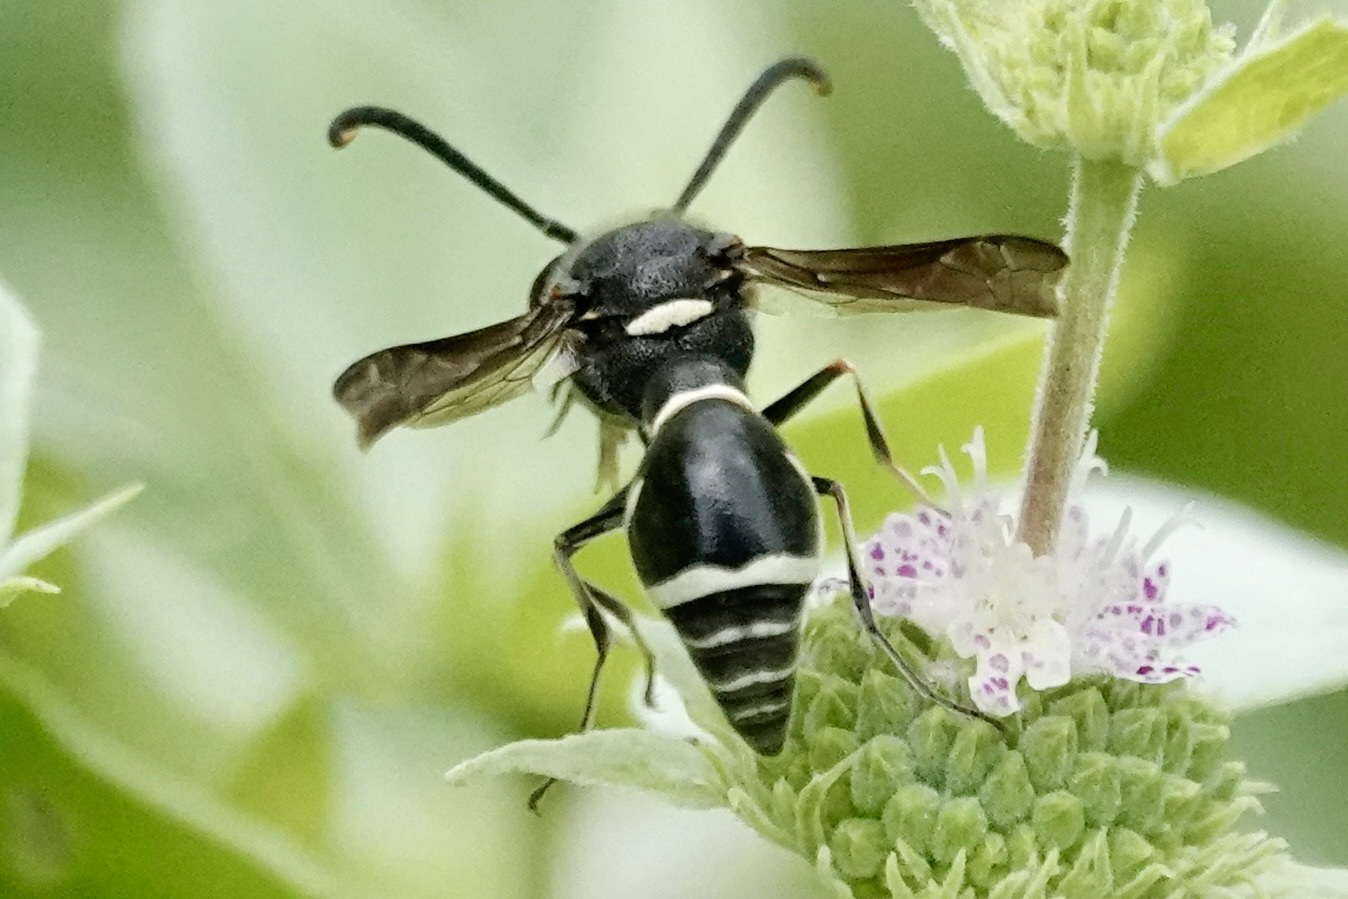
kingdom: Animalia
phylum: Arthropoda
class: Insecta
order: Hymenoptera
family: Vespidae
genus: Eumenes
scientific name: Eumenes fraternus
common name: Fraternal potter wasp
